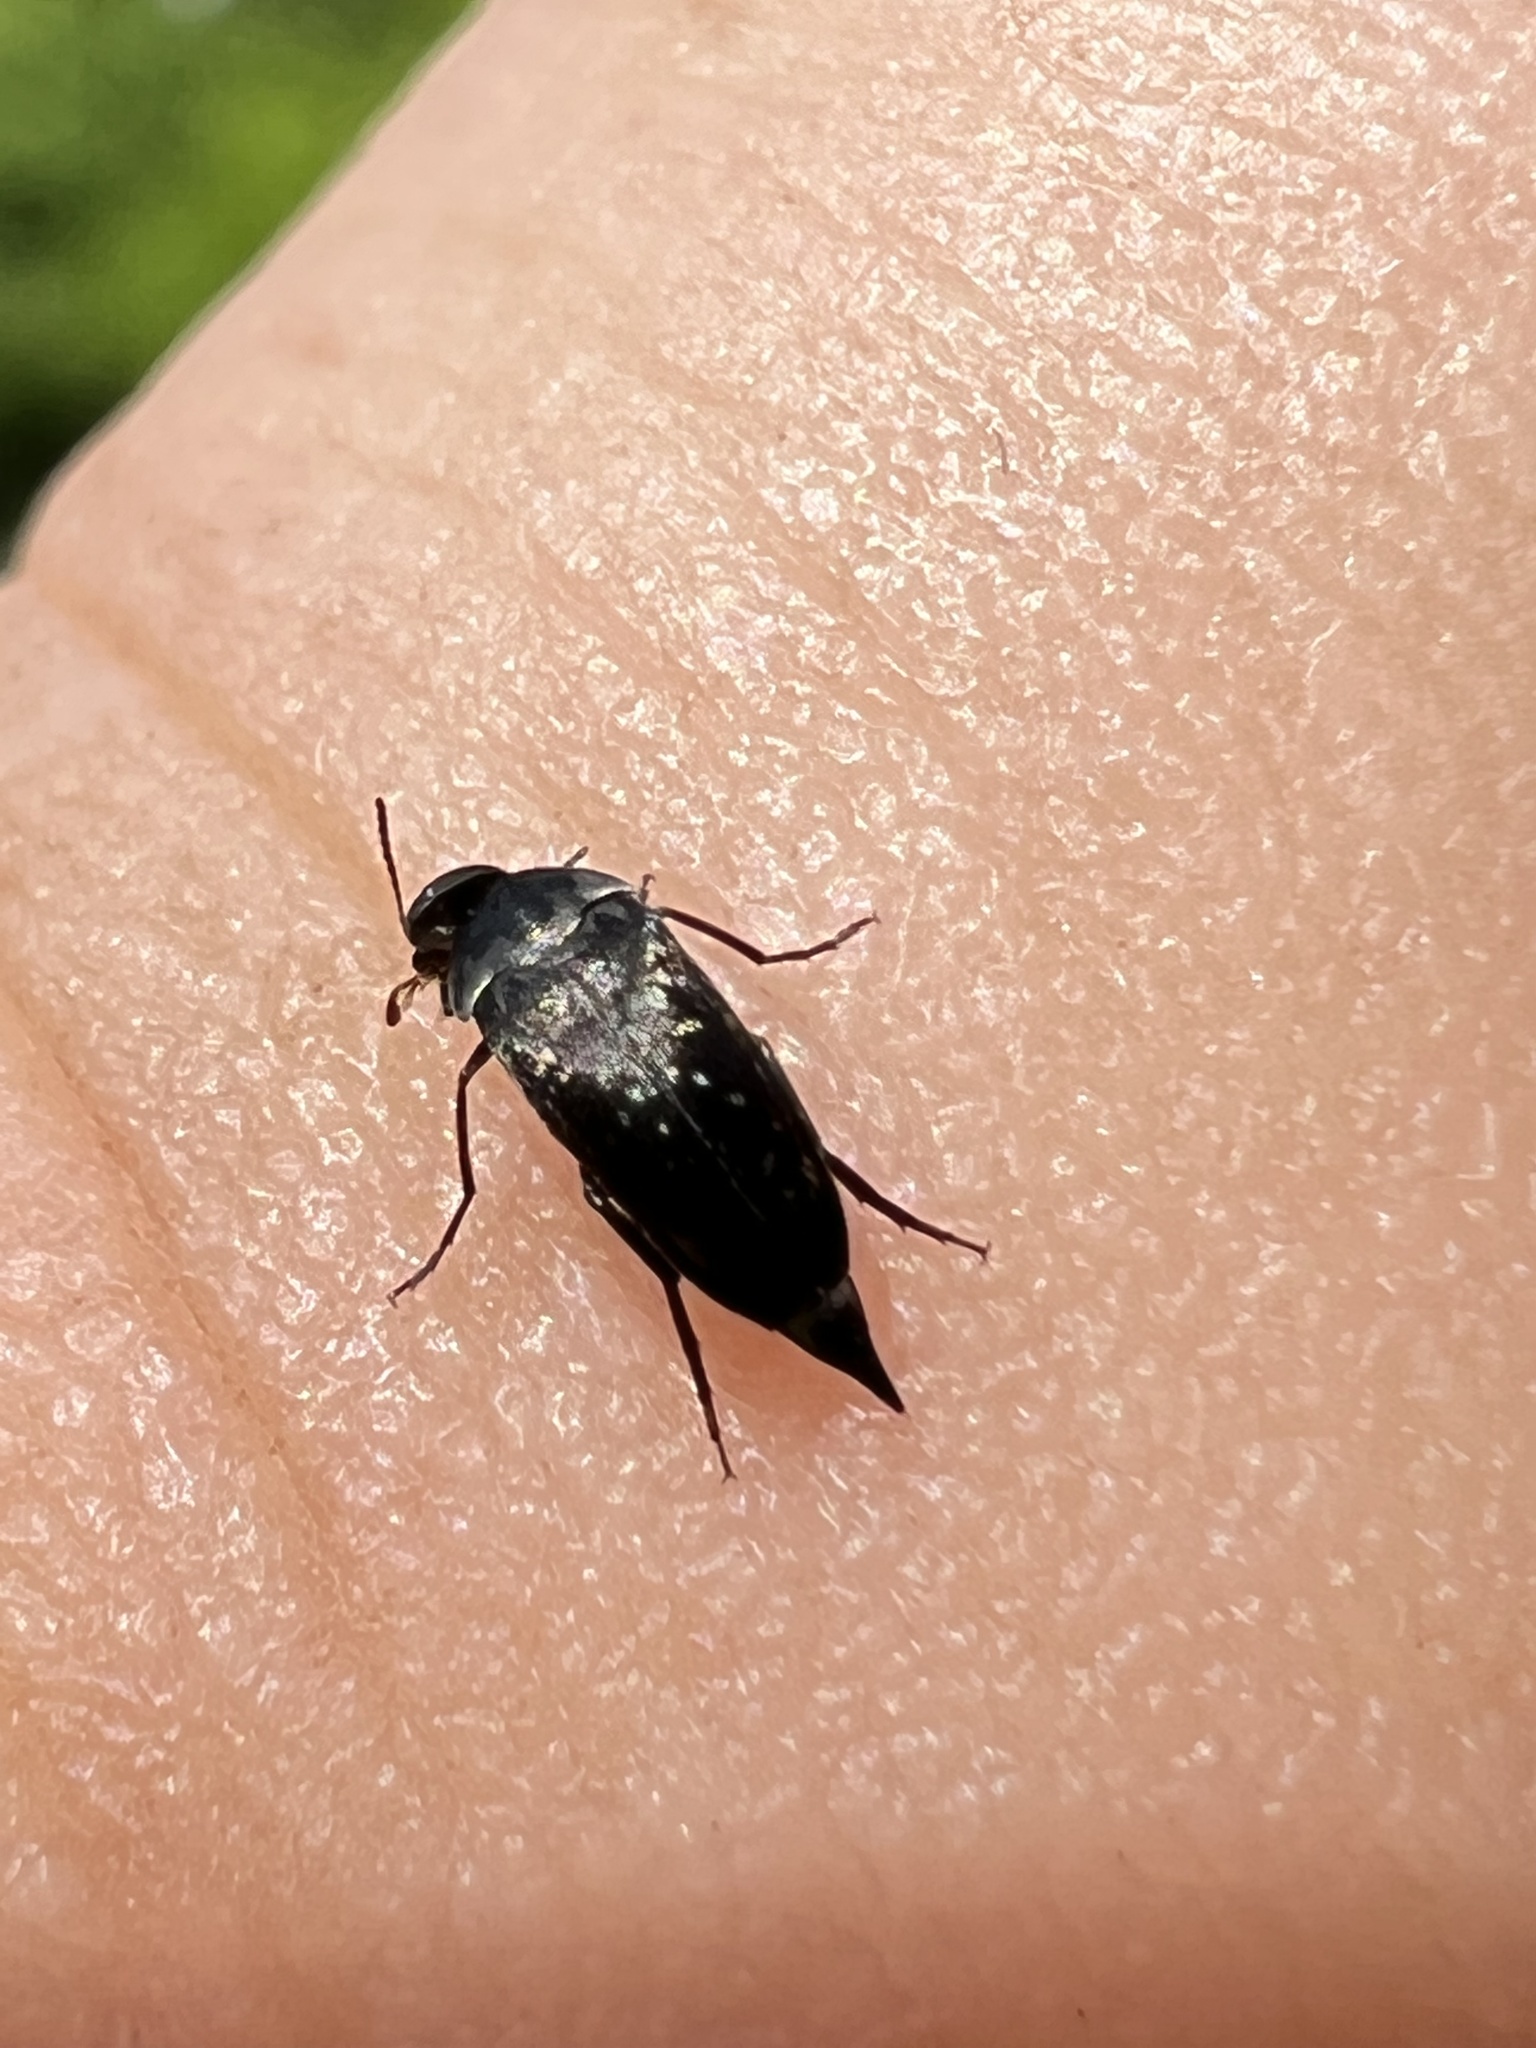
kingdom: Animalia
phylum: Arthropoda
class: Insecta
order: Coleoptera
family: Mordellidae
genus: Mordella
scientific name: Mordella marginata
